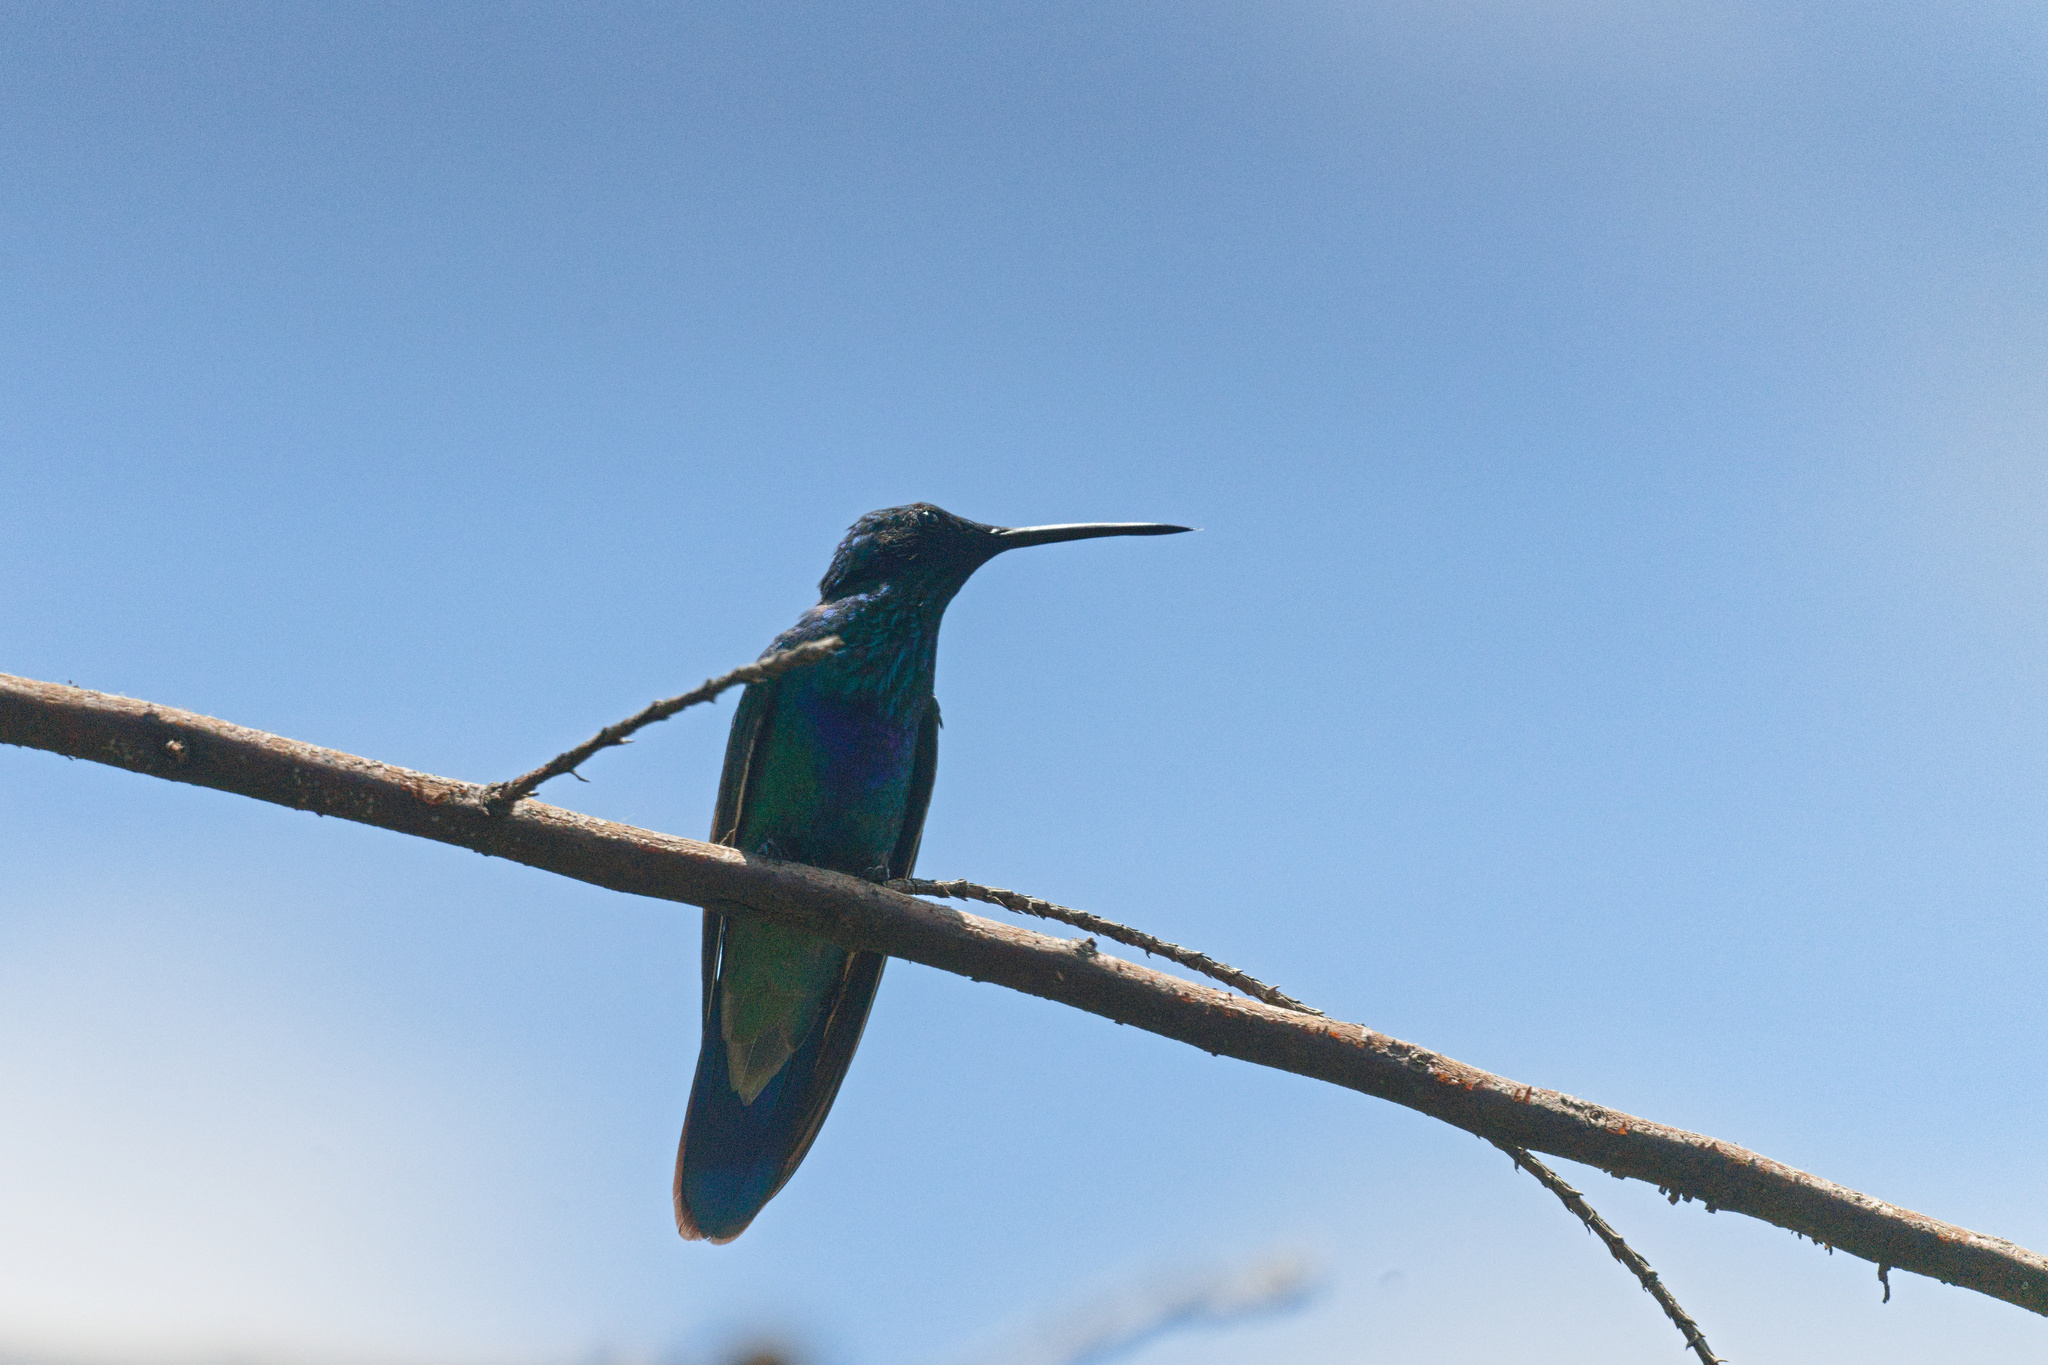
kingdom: Animalia
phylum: Chordata
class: Aves
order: Apodiformes
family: Trochilidae
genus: Colibri
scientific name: Colibri coruscans
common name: Sparkling violetear
